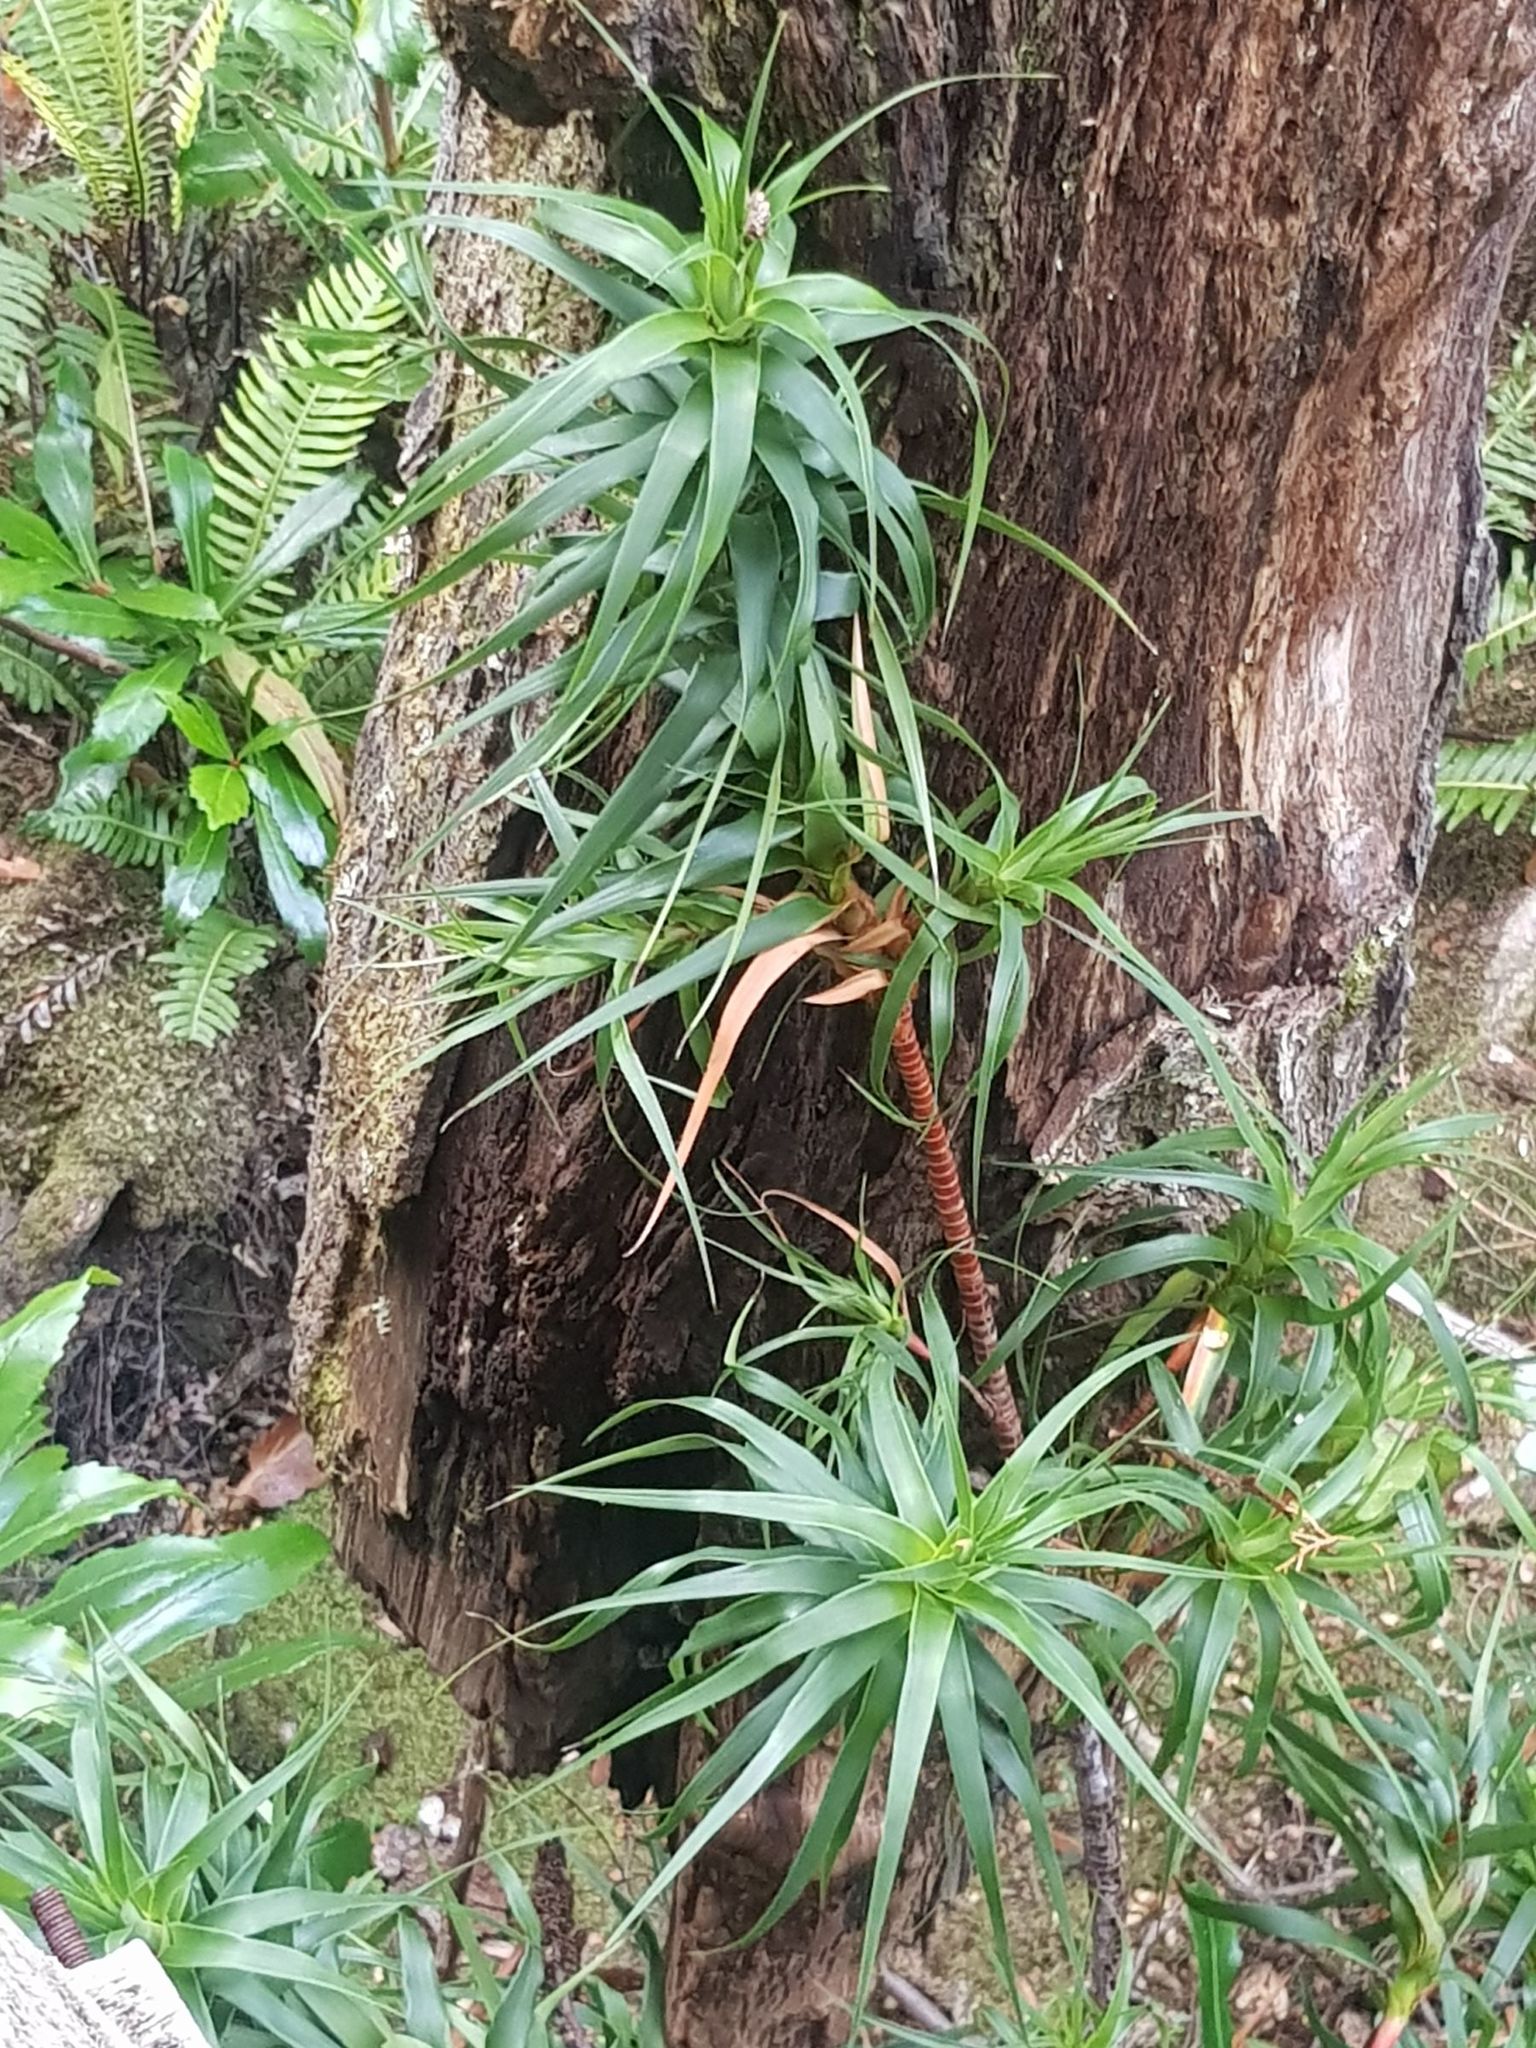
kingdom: Plantae
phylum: Tracheophyta
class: Magnoliopsida
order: Ericales
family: Ericaceae
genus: Dracophyllum
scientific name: Dracophyllum desgrazii
